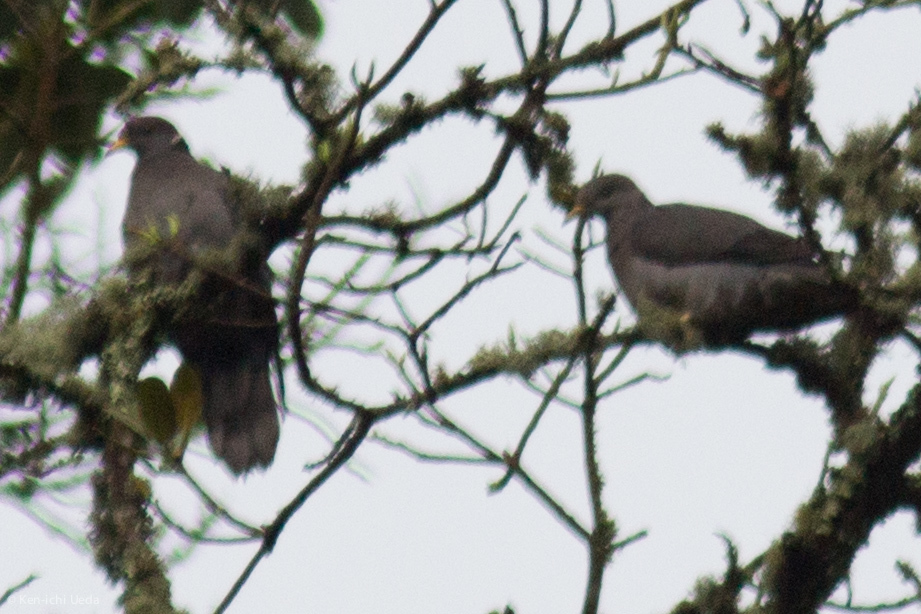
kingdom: Animalia
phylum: Chordata
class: Aves
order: Columbiformes
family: Columbidae
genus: Patagioenas
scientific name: Patagioenas fasciata
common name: Band-tailed pigeon
